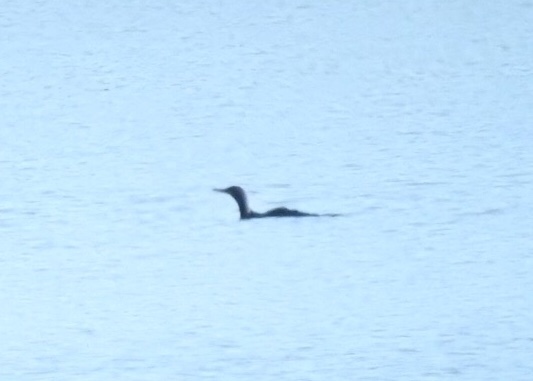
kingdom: Animalia
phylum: Chordata
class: Aves
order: Suliformes
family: Phalacrocoracidae
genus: Phalacrocorax
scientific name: Phalacrocorax auritus
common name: Double-crested cormorant
